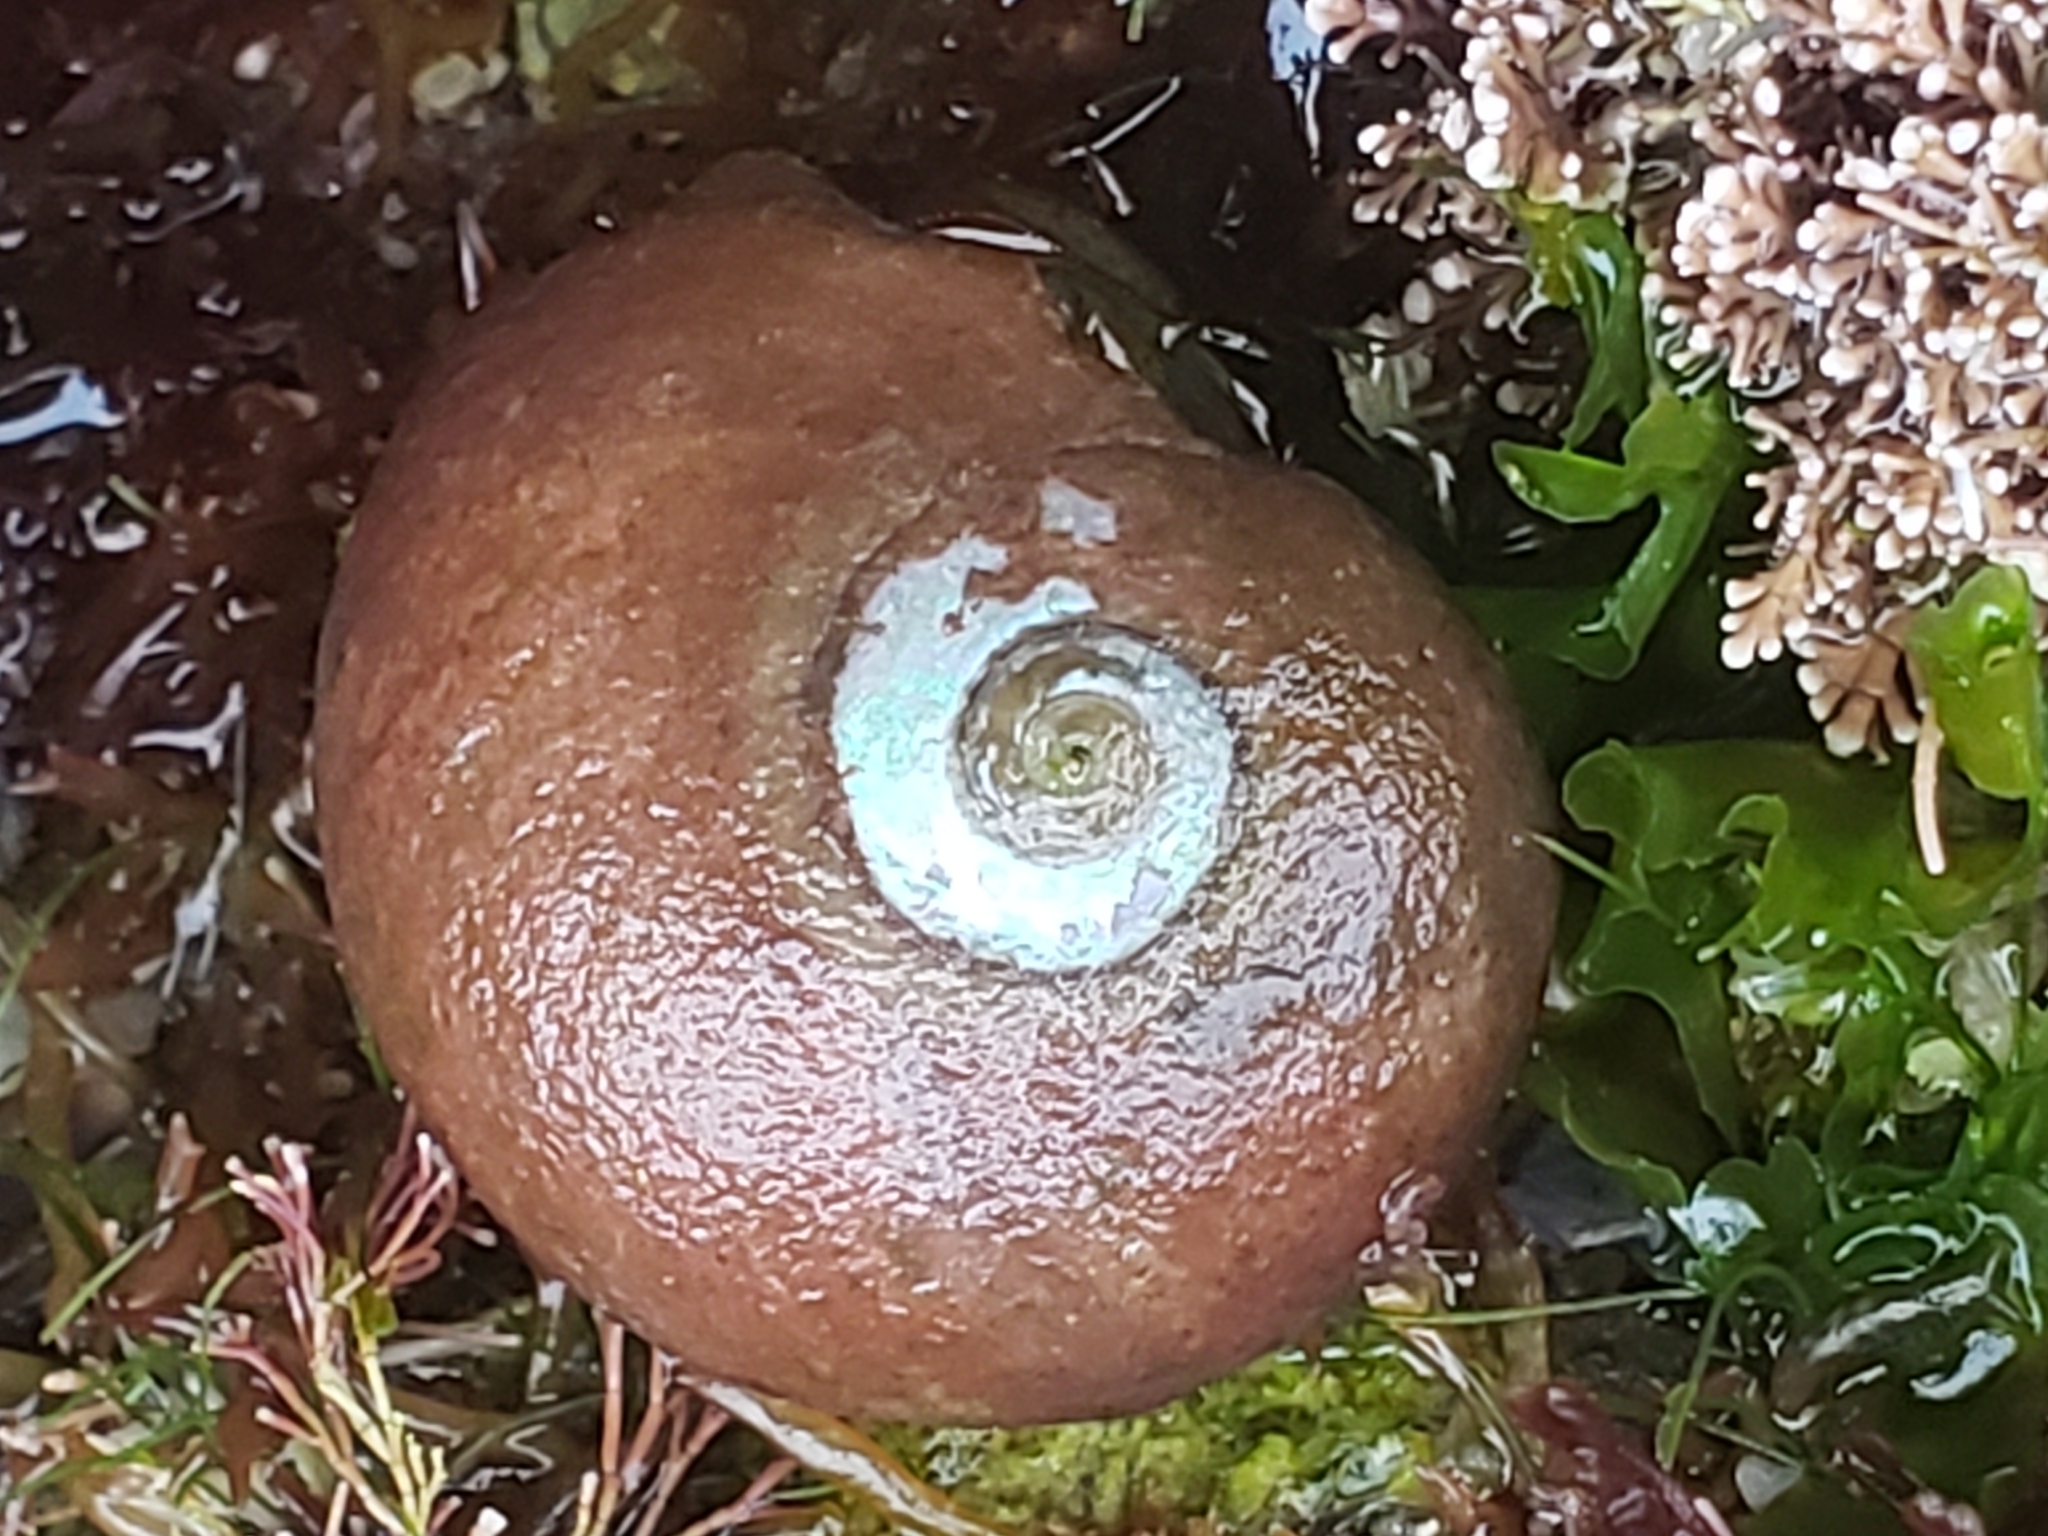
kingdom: Animalia
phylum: Mollusca
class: Gastropoda
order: Trochida
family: Tegulidae
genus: Norrisia
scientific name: Norrisia norrisii
